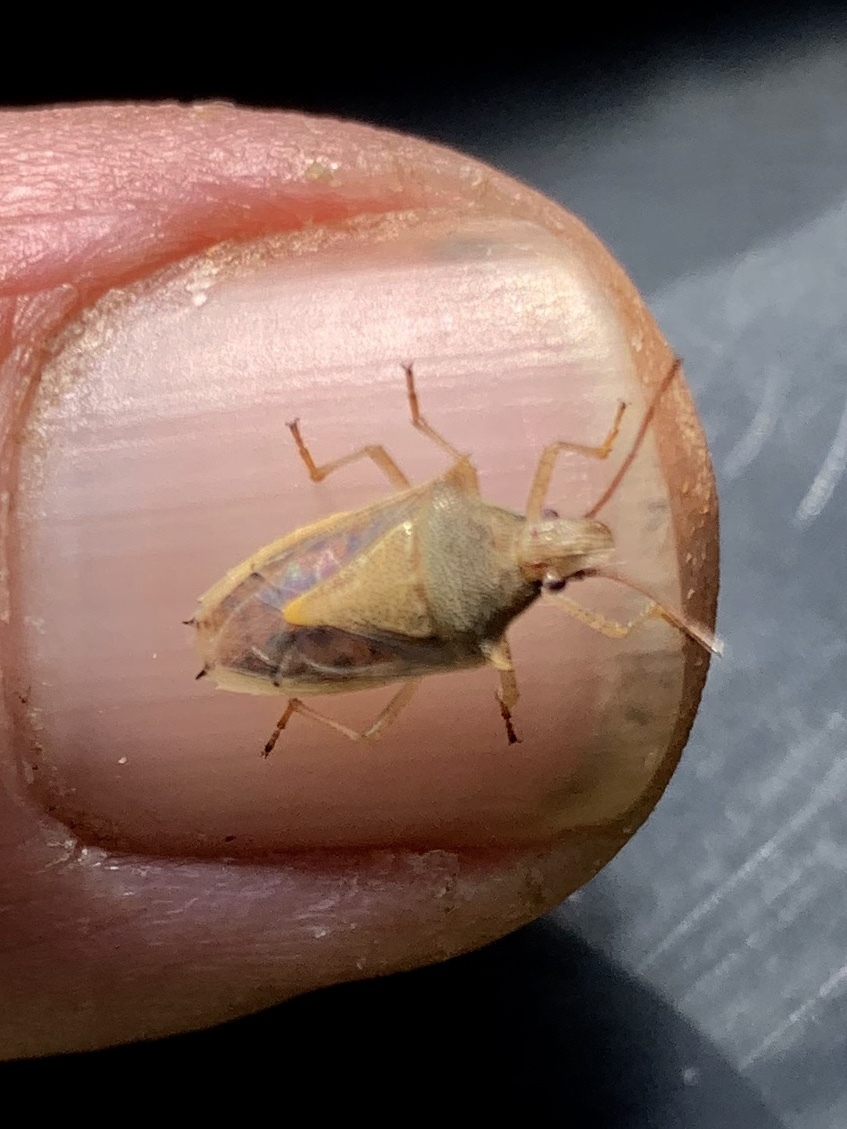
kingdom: Animalia
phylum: Arthropoda
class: Insecta
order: Hemiptera
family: Pentatomidae
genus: Oebalus
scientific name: Oebalus pugnax
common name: Rice stink bug
